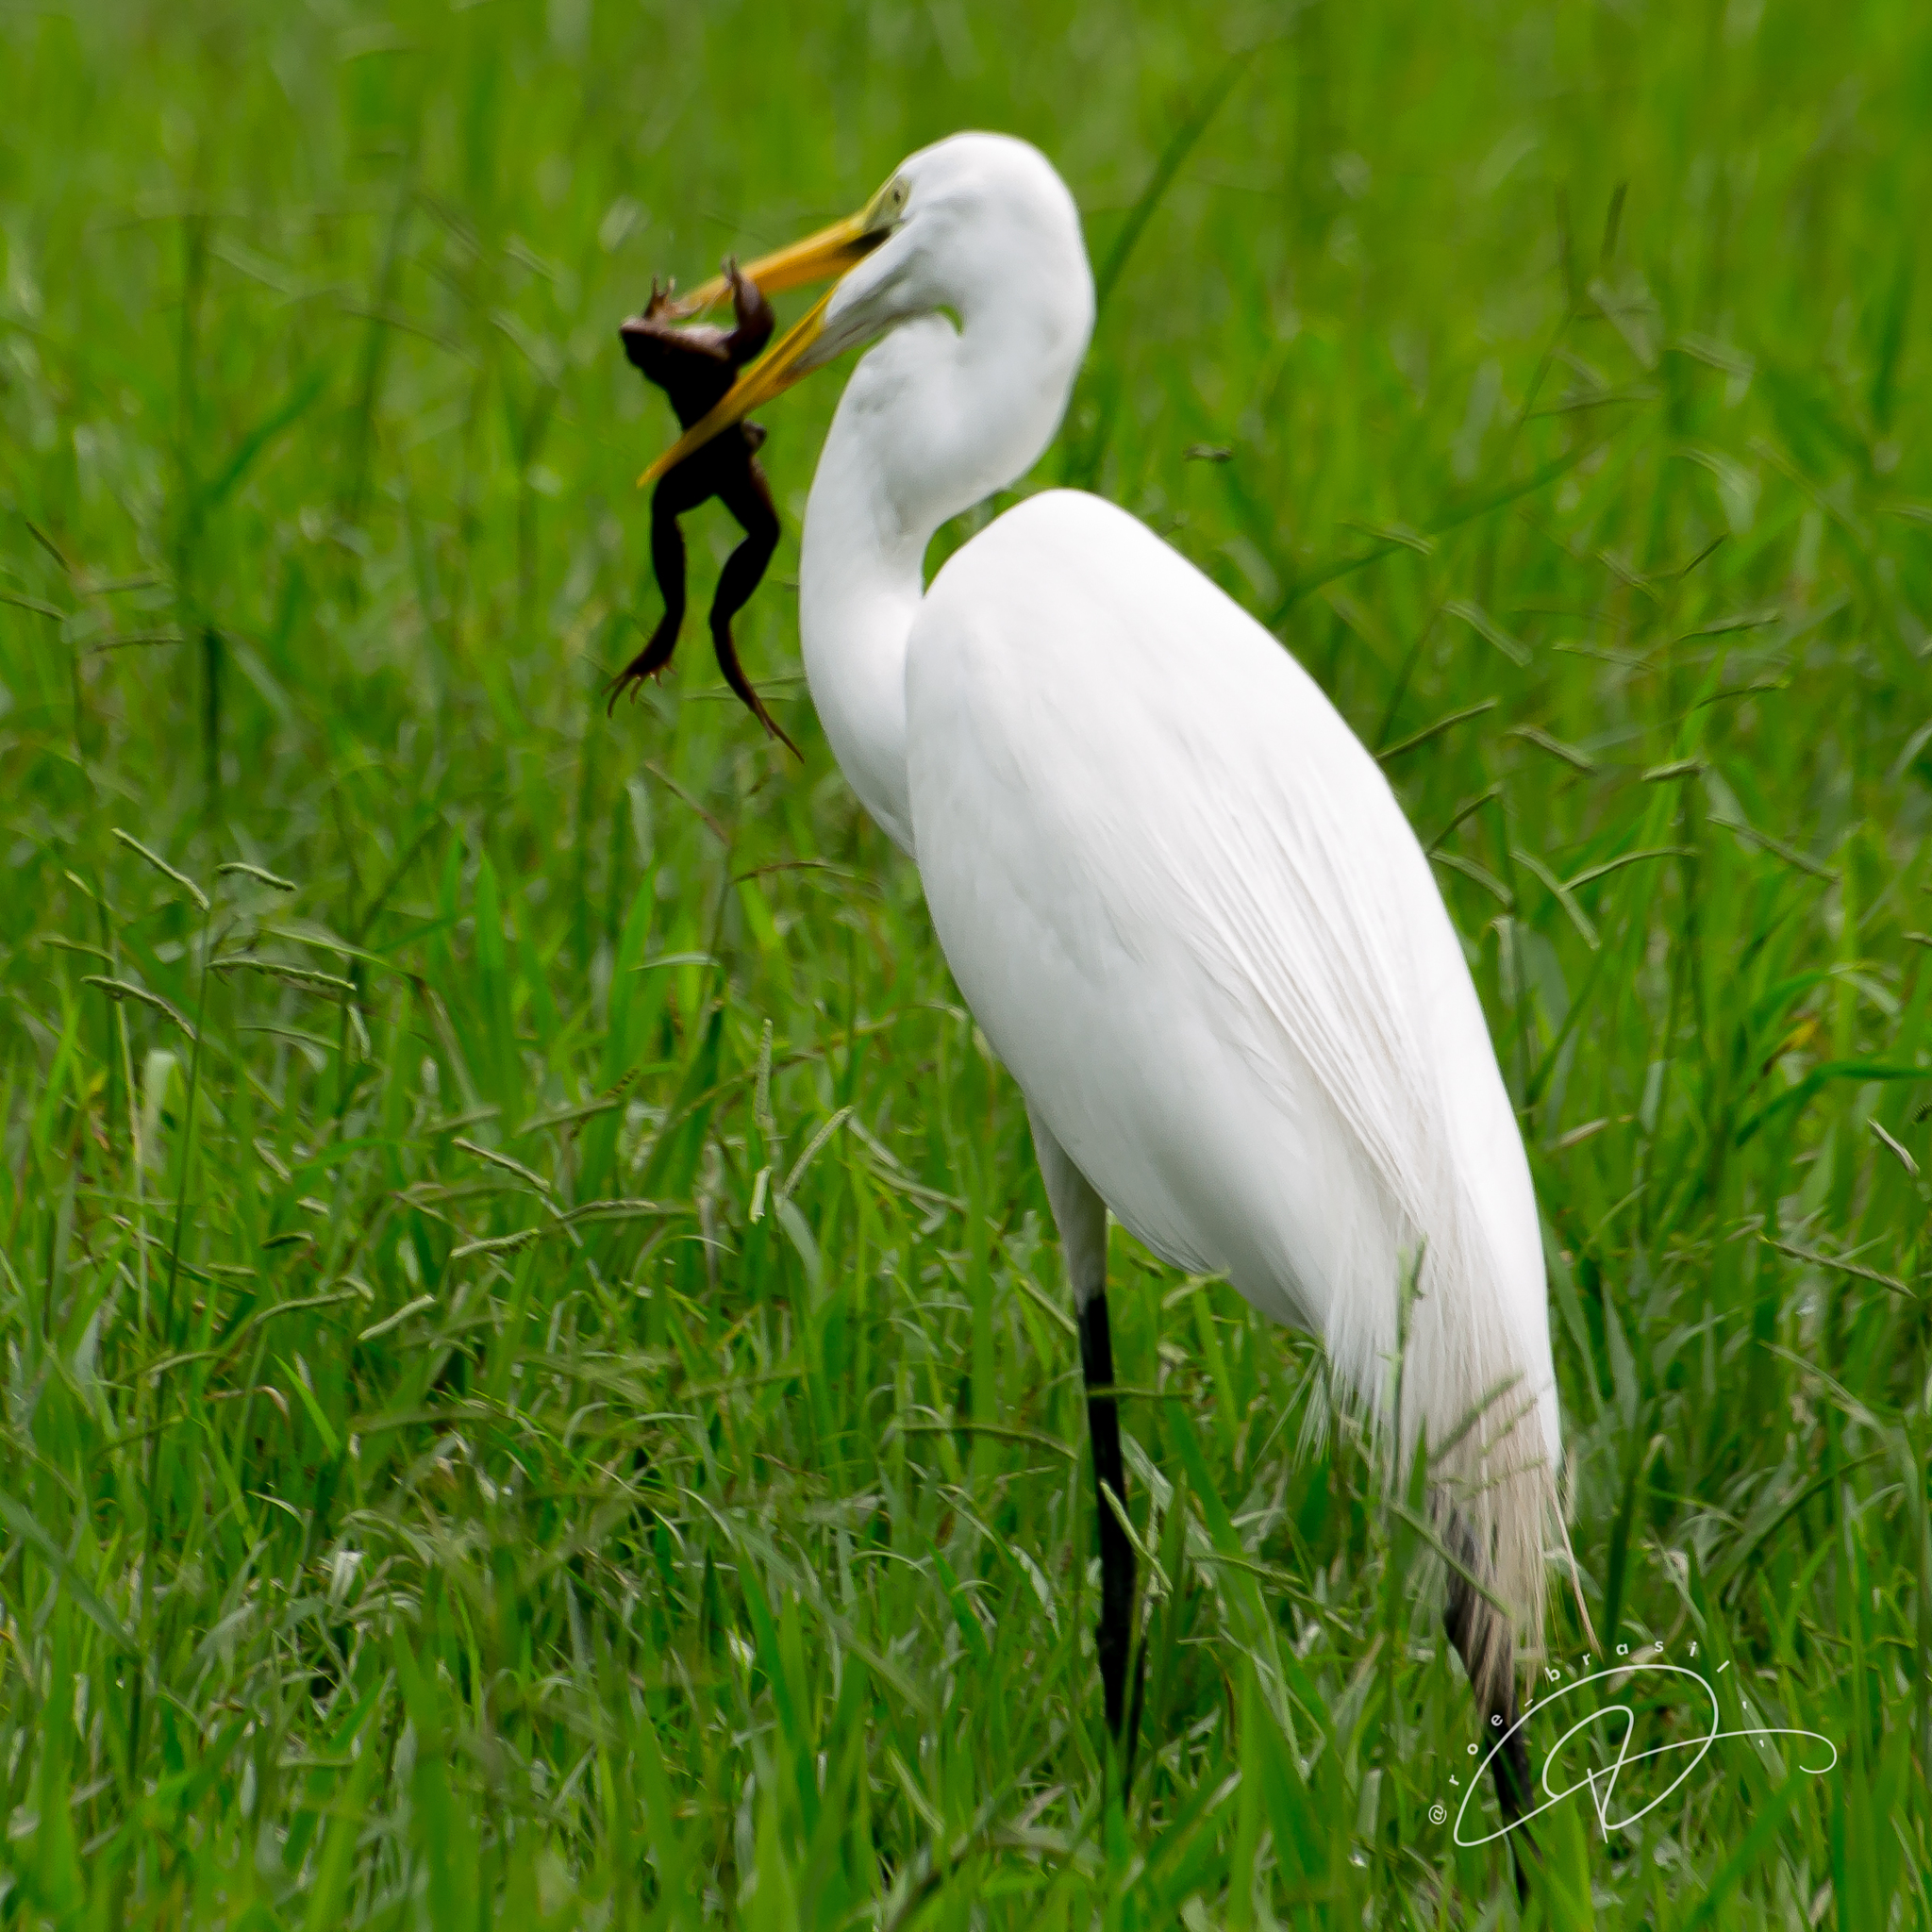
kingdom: Animalia
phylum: Chordata
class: Aves
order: Pelecaniformes
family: Ardeidae
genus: Ardea
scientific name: Ardea alba
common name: Great egret
